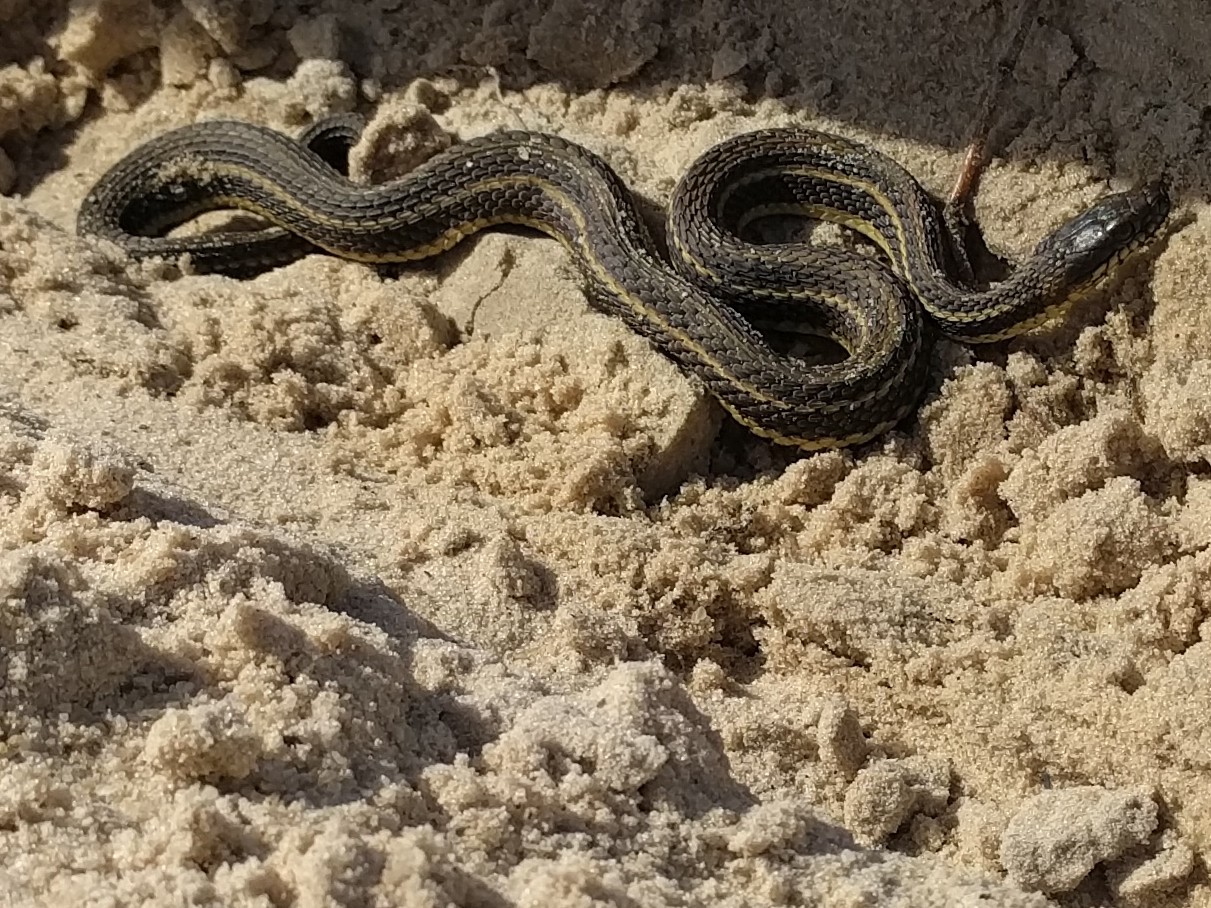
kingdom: Animalia
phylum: Chordata
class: Squamata
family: Colubridae
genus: Nerodia
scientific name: Nerodia clarkii
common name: Atlantic saltmarsh snake
